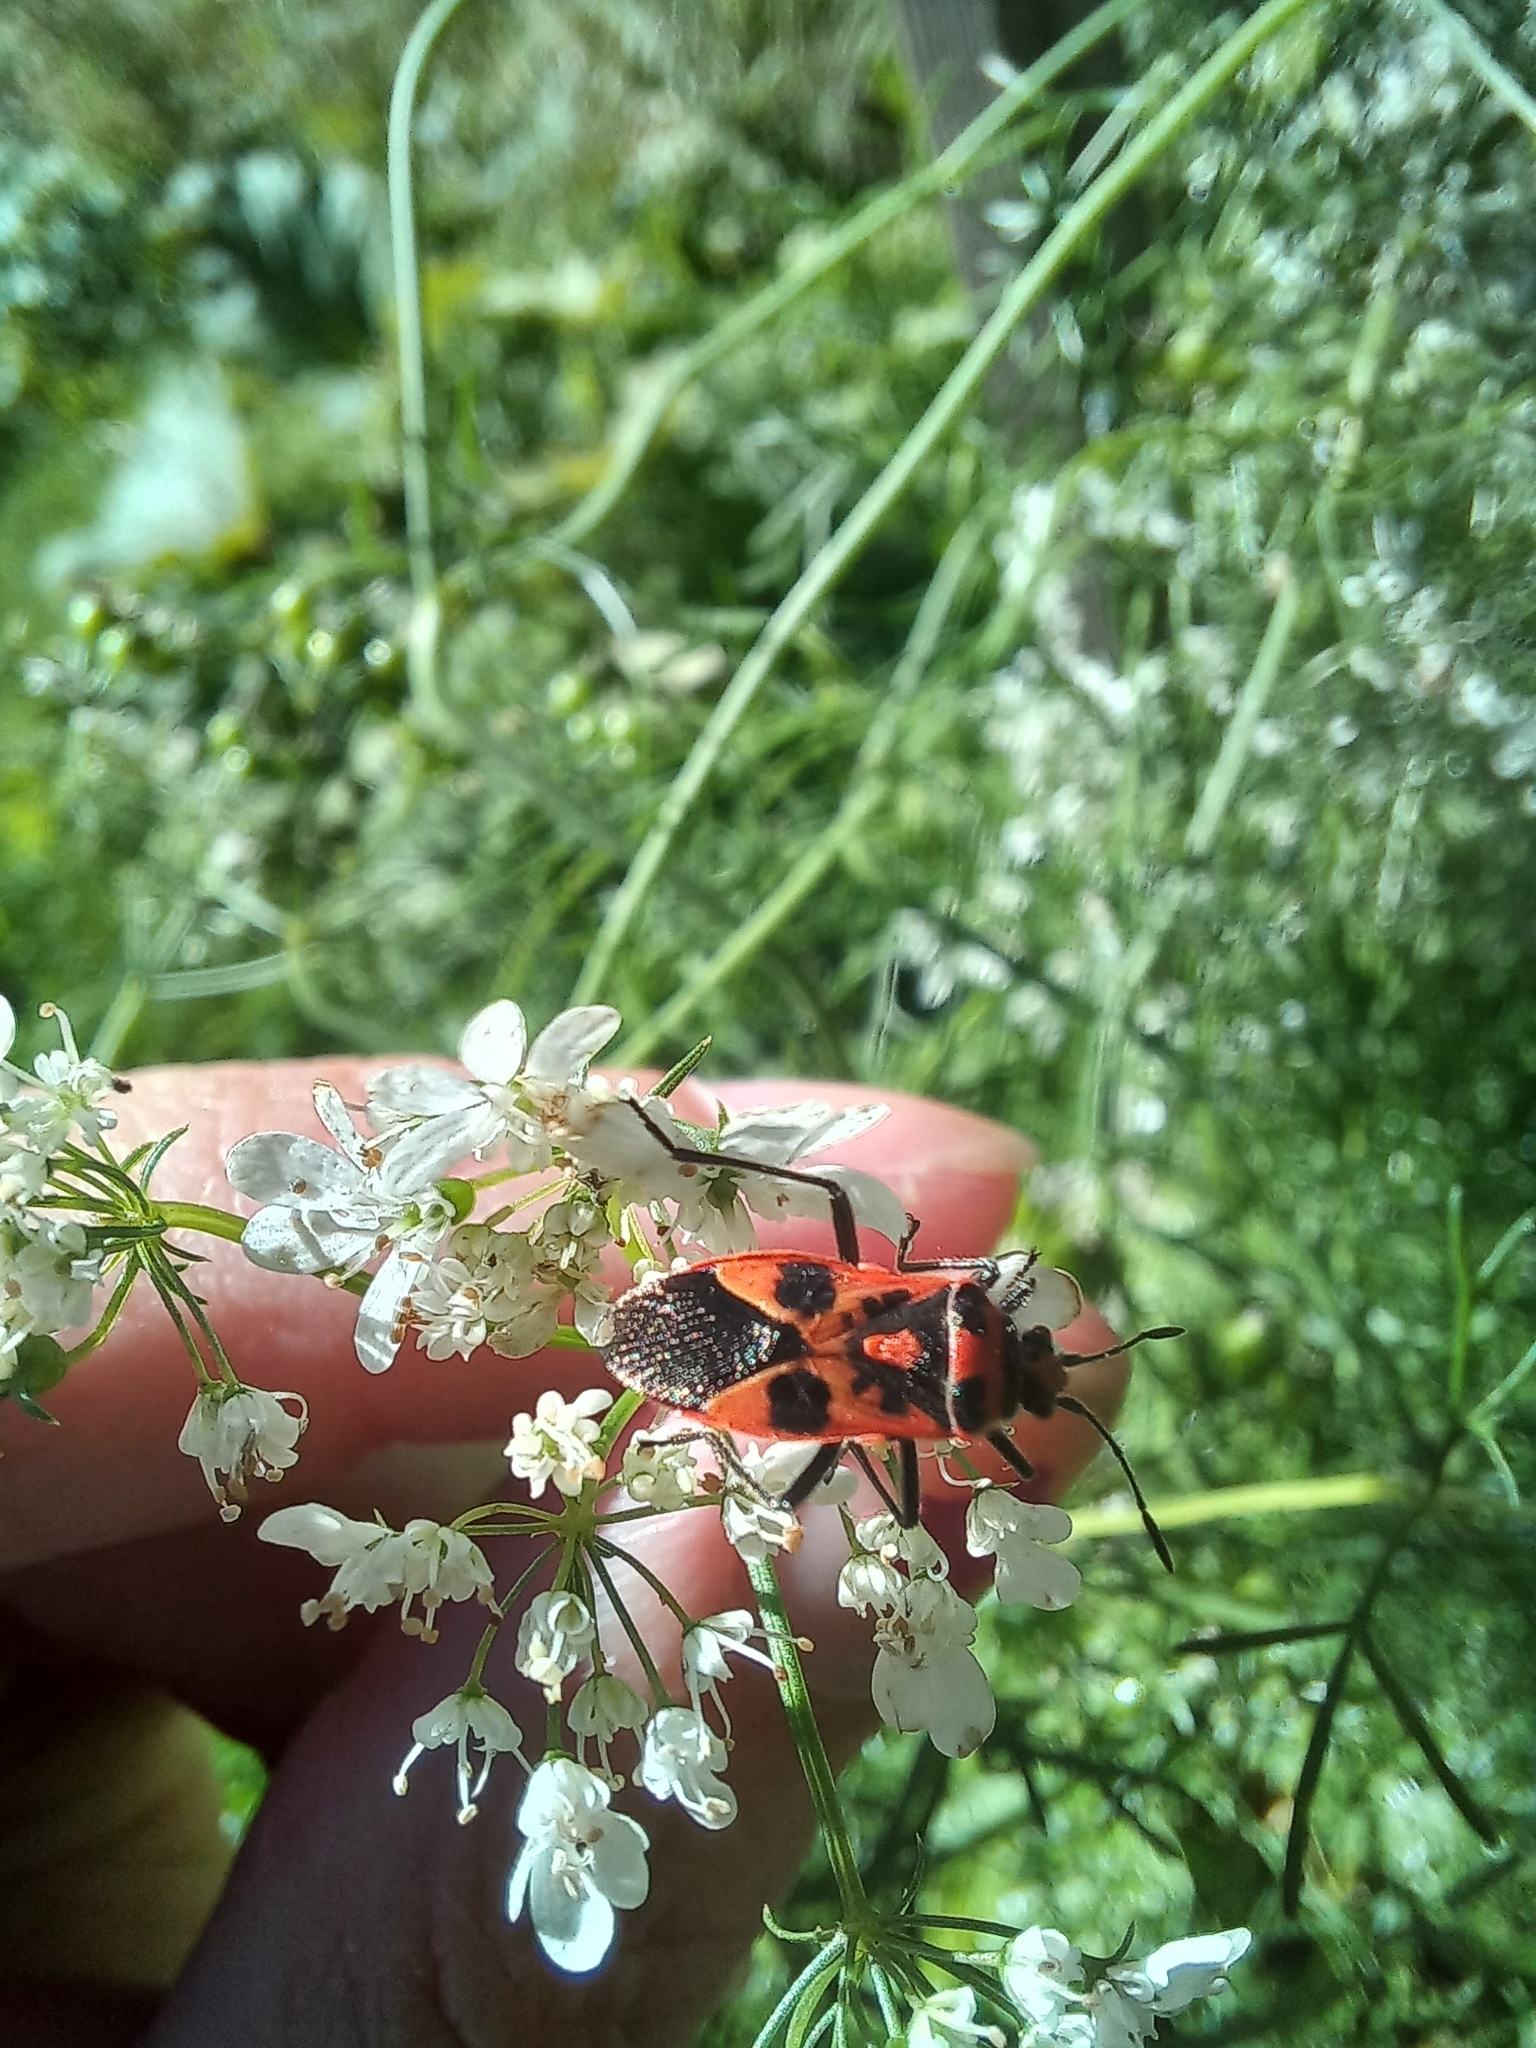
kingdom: Animalia
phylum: Arthropoda
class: Insecta
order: Hemiptera
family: Rhopalidae
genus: Corizus
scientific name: Corizus hyoscyami
